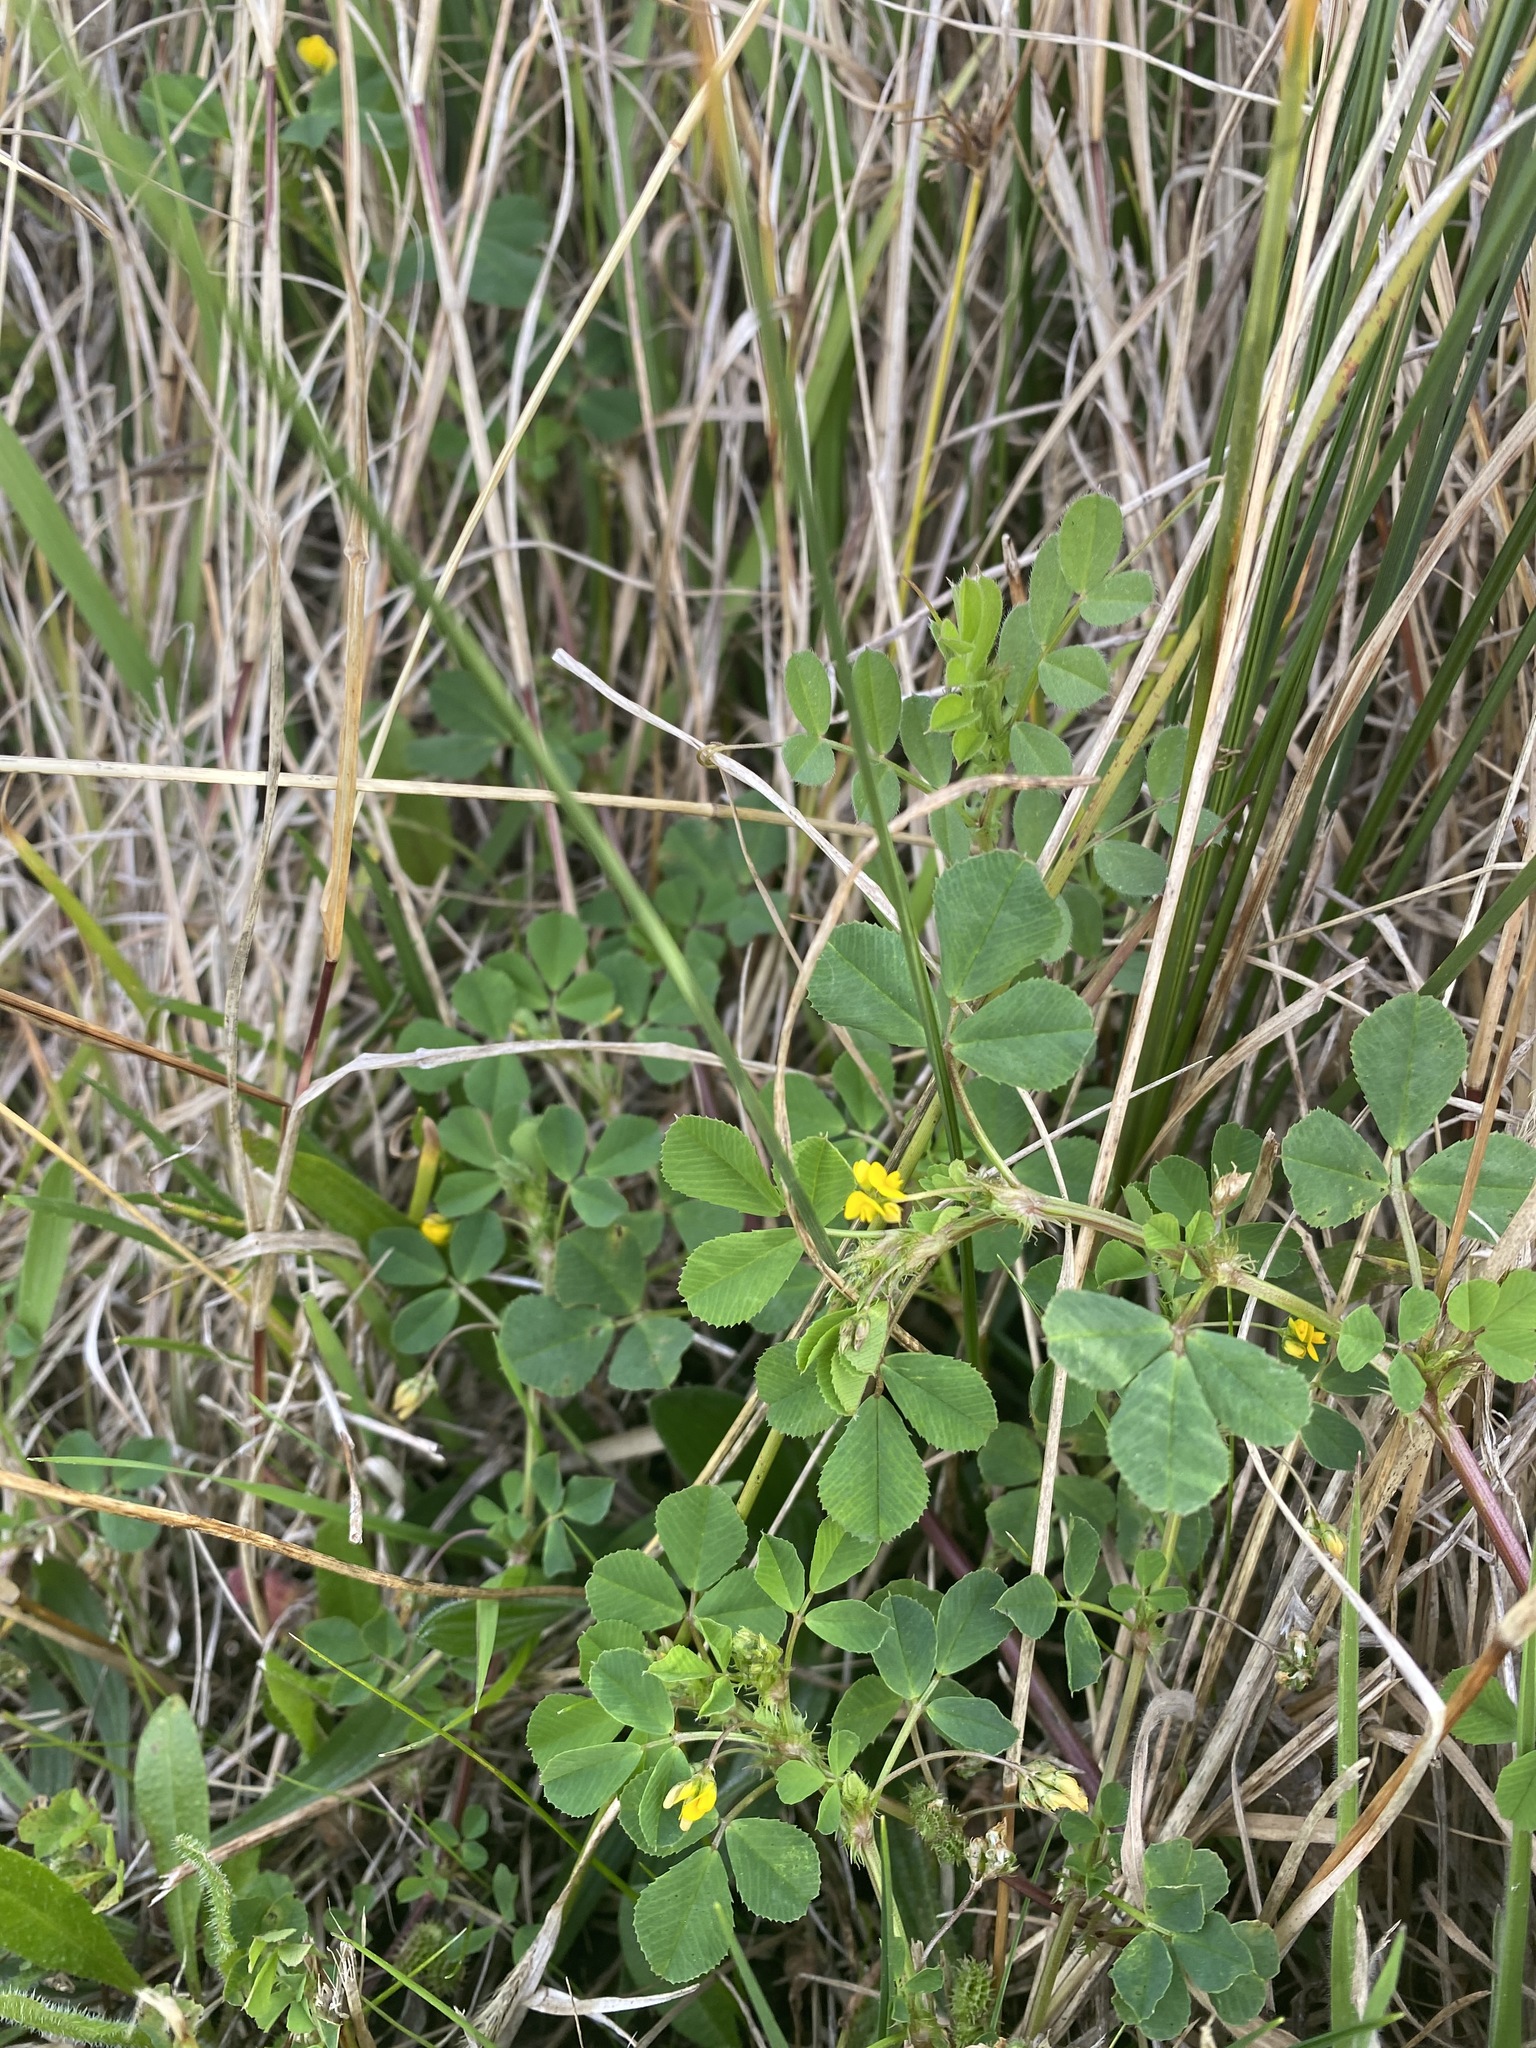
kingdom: Plantae
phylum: Tracheophyta
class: Magnoliopsida
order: Fabales
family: Fabaceae
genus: Medicago
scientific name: Medicago polymorpha
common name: Burclover
